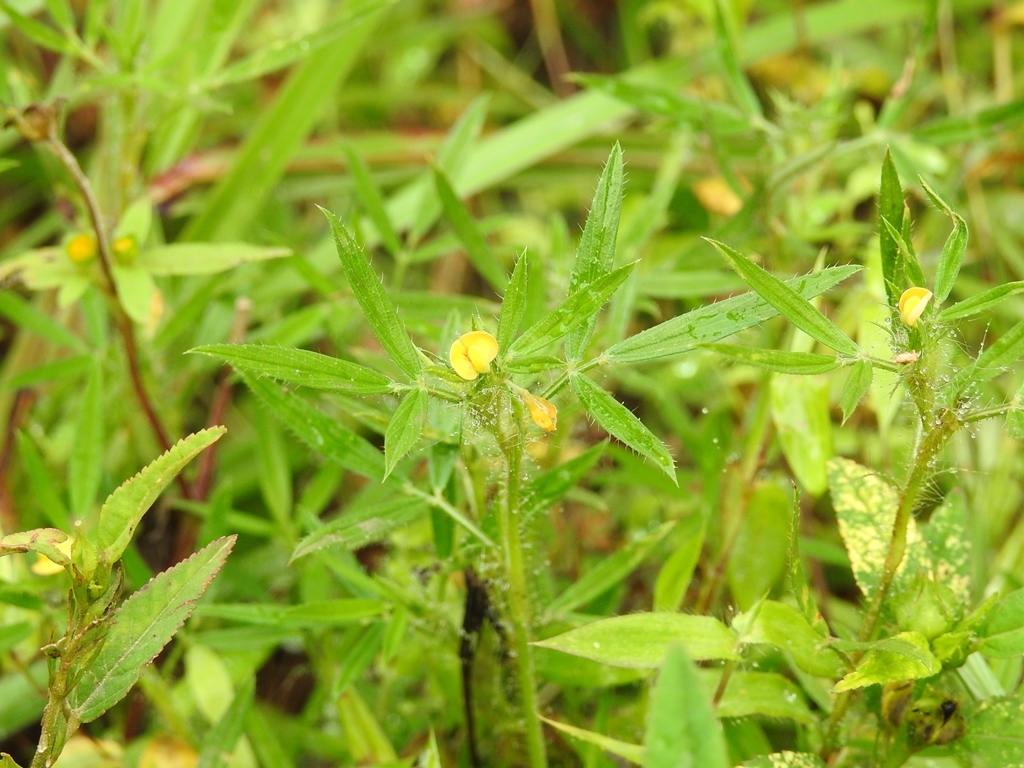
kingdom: Plantae
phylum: Tracheophyta
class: Magnoliopsida
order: Fabales
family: Fabaceae
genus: Stylosanthes
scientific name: Stylosanthes guianensis
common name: Pencil flower
